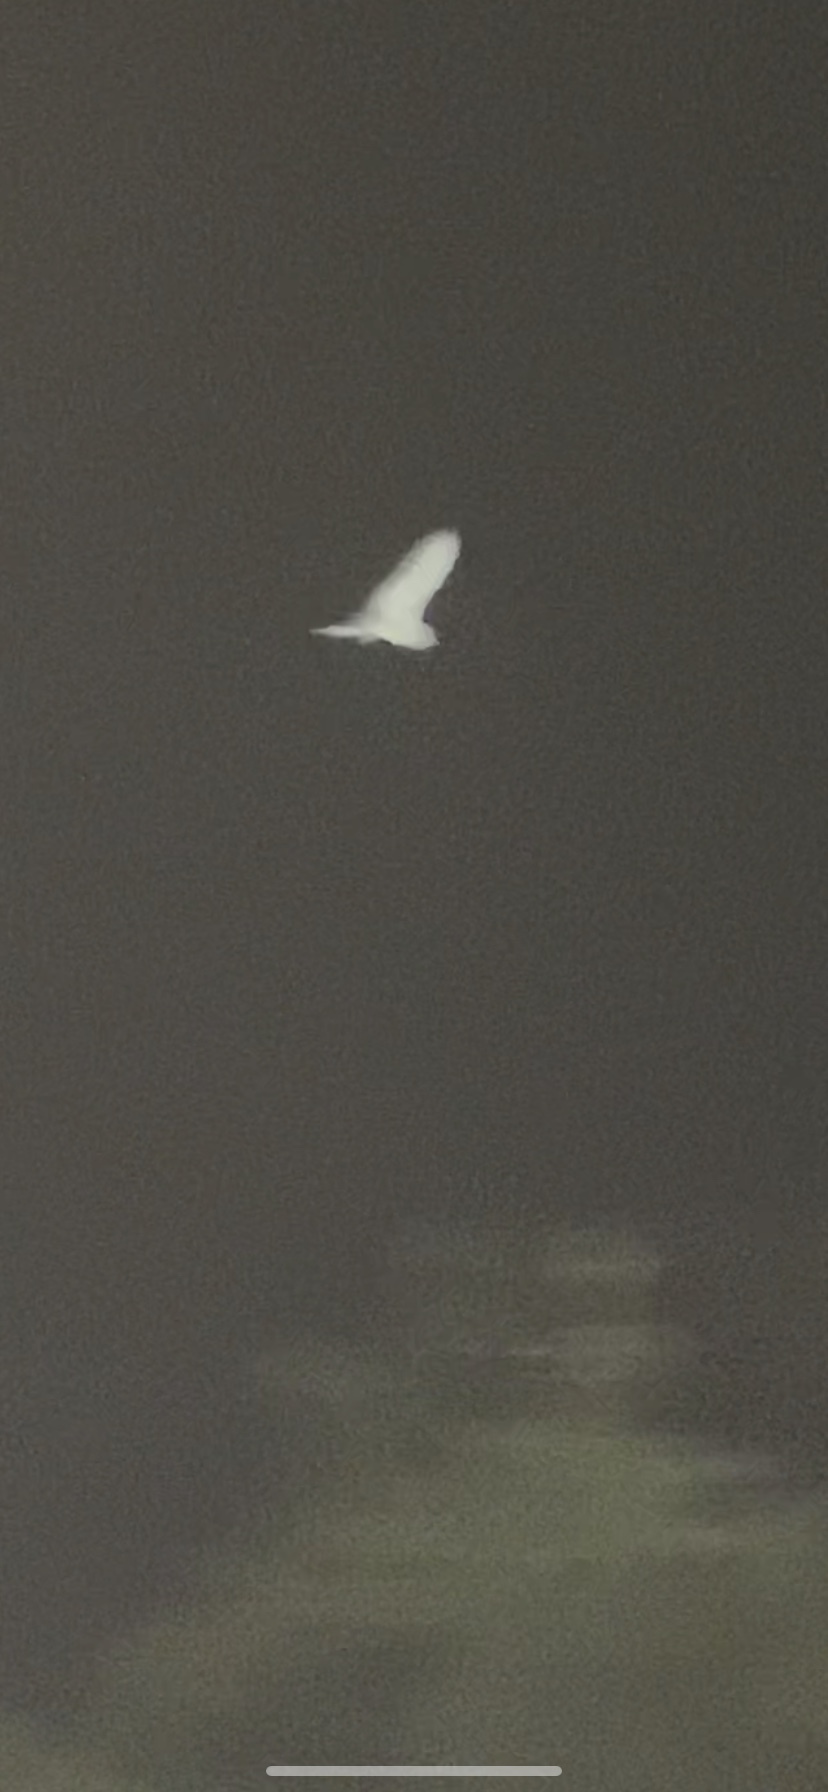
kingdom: Animalia
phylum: Chordata
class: Aves
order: Strigiformes
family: Tytonidae
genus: Tyto
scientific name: Tyto alba
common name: Barn owl
